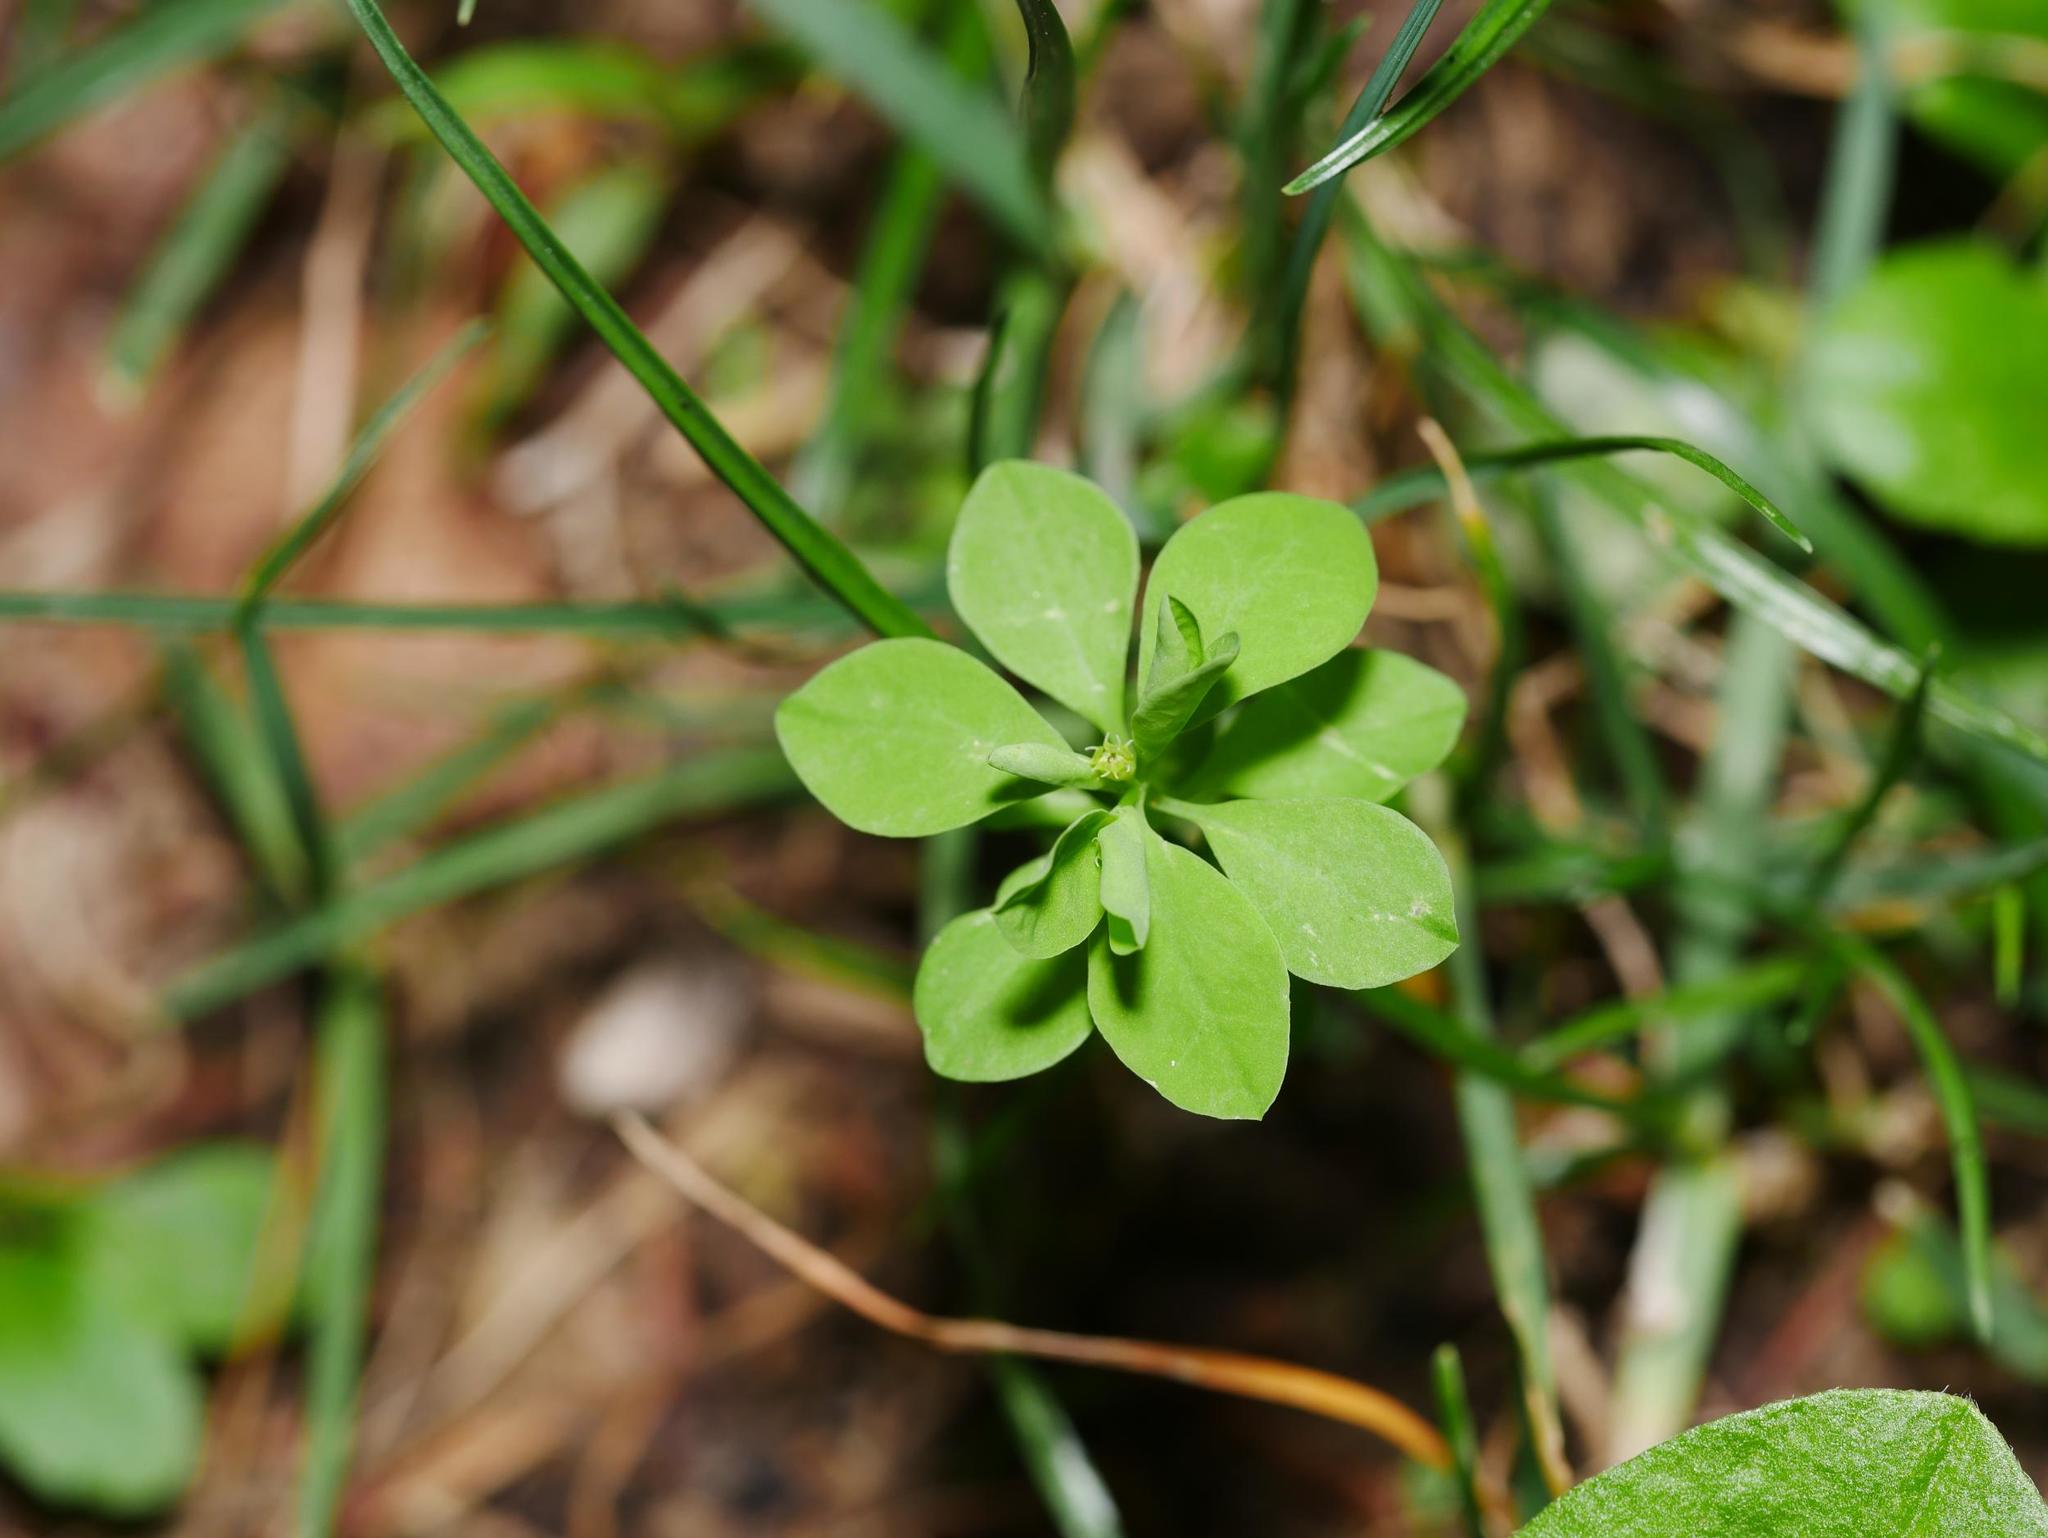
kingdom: Plantae
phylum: Tracheophyta
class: Magnoliopsida
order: Malpighiales
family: Euphorbiaceae
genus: Euphorbia
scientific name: Euphorbia peplus
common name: Petty spurge
